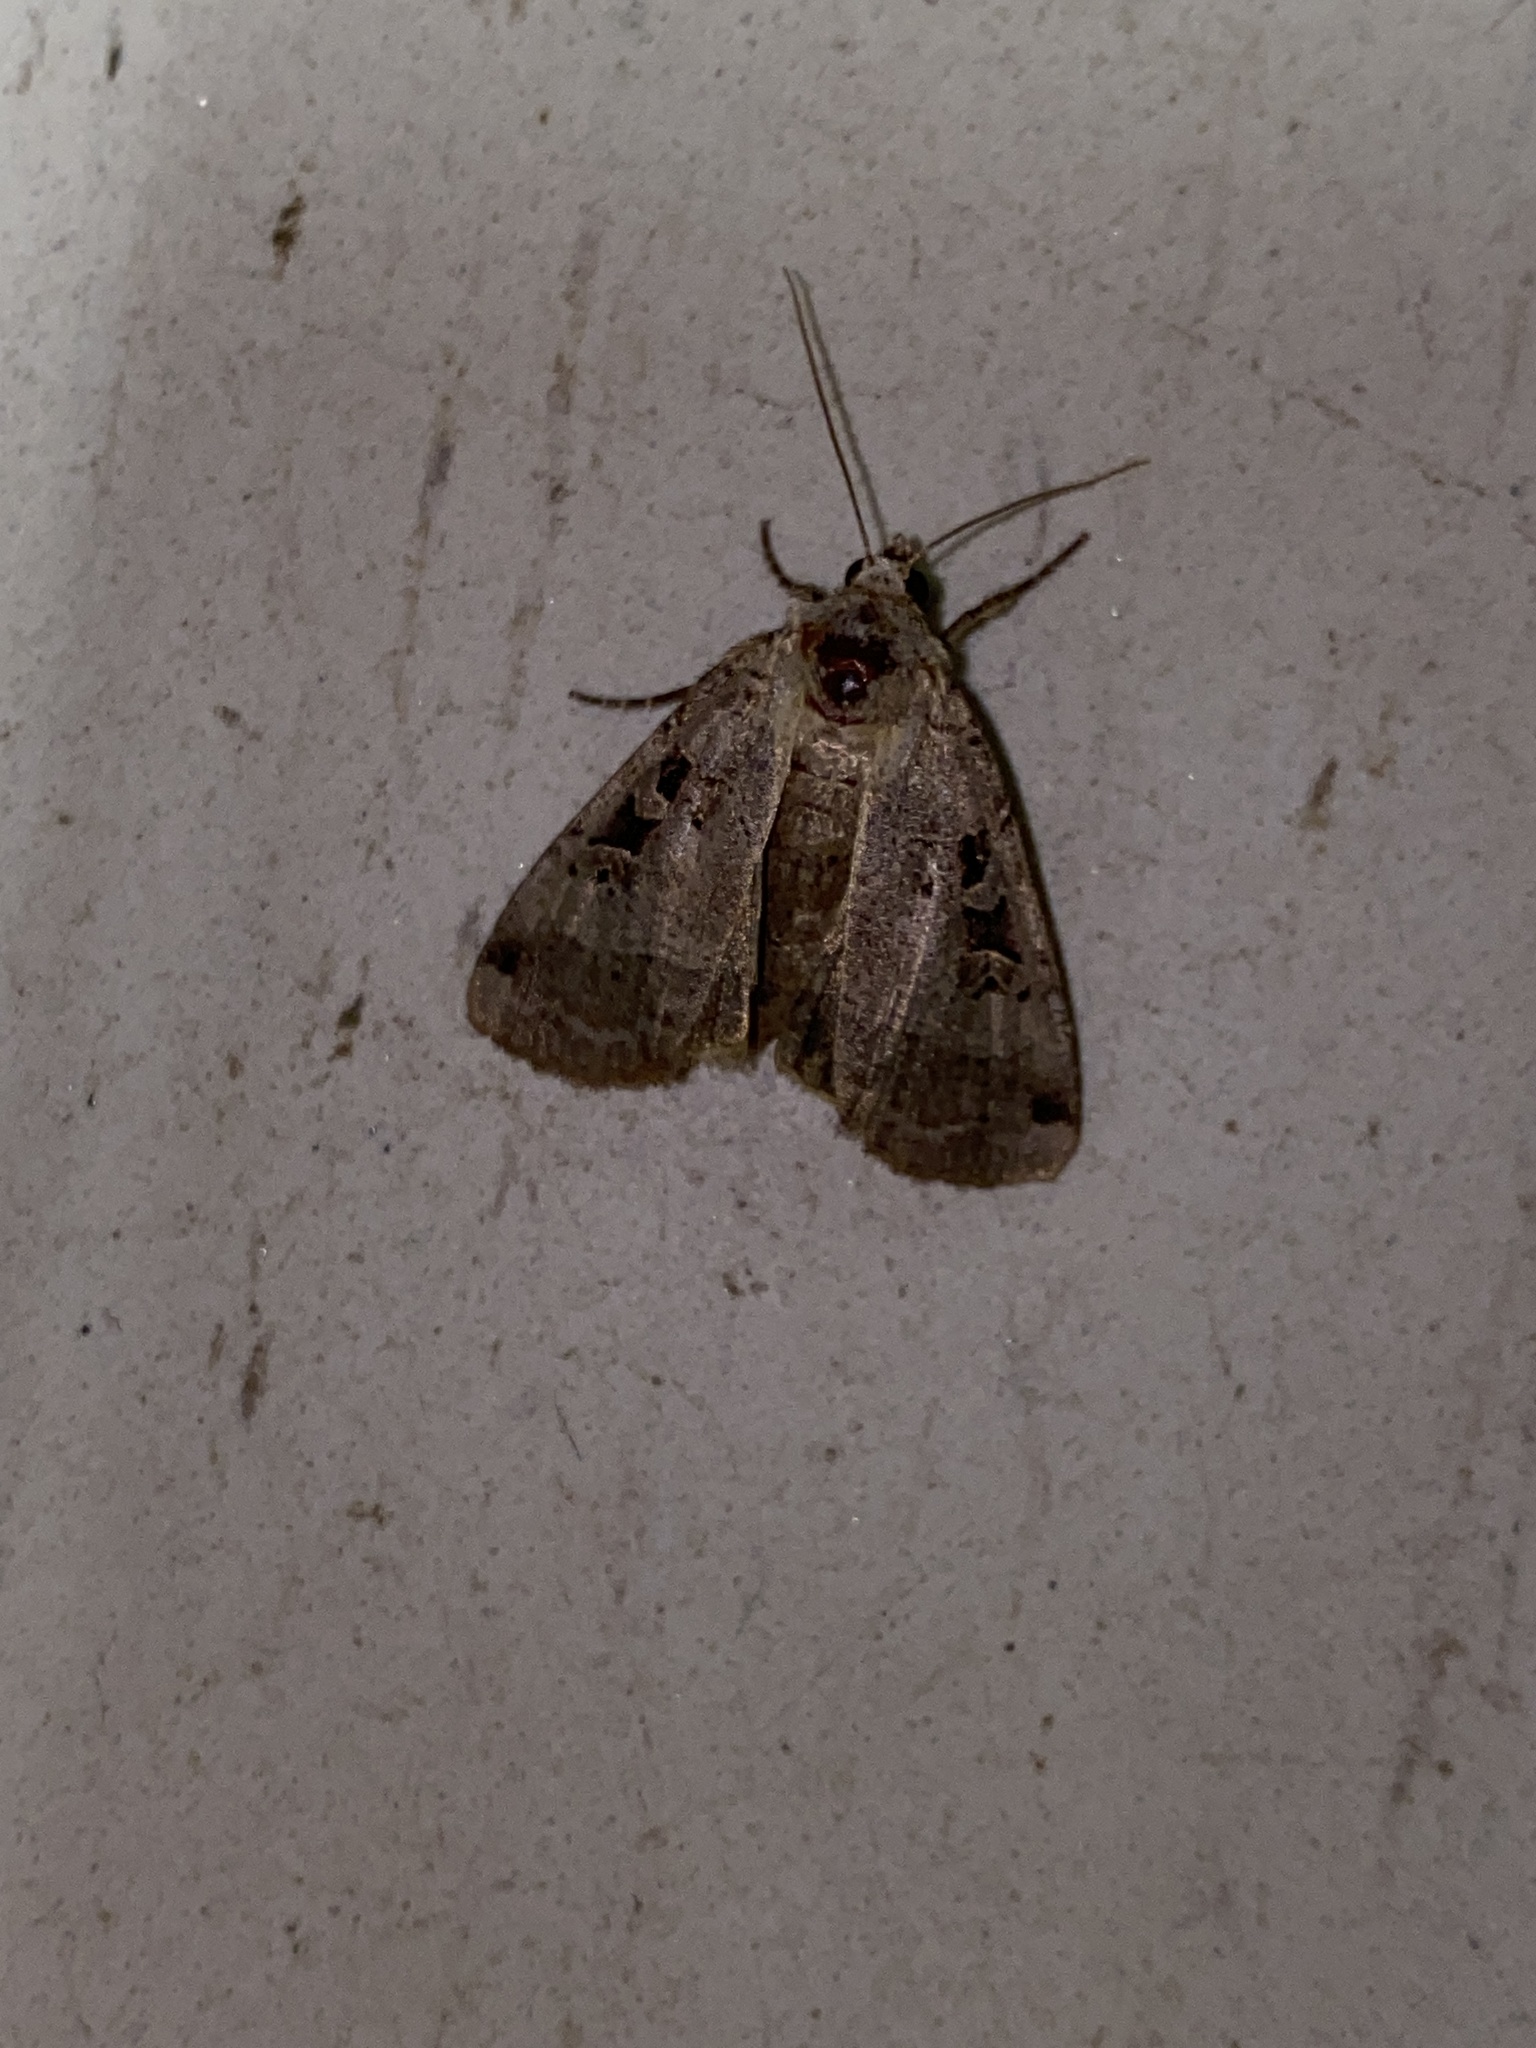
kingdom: Animalia
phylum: Arthropoda
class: Insecta
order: Lepidoptera
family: Noctuidae
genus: Xestia
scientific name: Xestia normaniana
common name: Norman's dart moth
